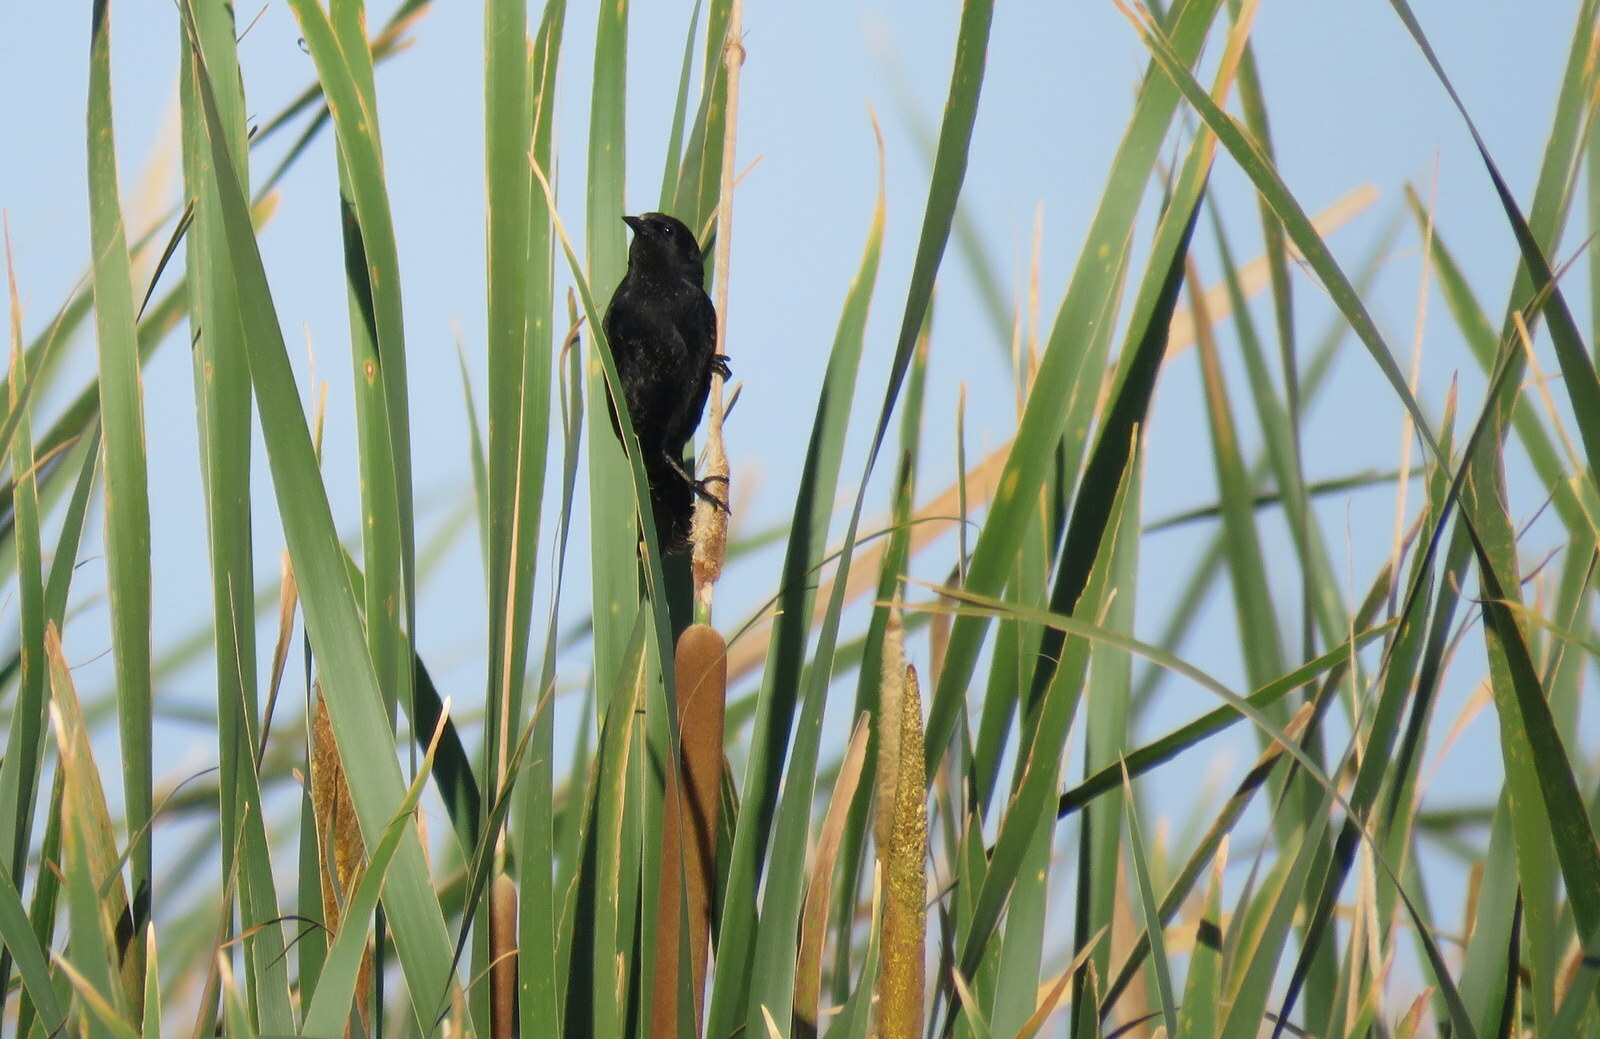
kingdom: Animalia
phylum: Chordata
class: Aves
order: Passeriformes
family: Icteridae
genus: Agelasticus
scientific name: Agelasticus thilius
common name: Yellow-winged blackbird
